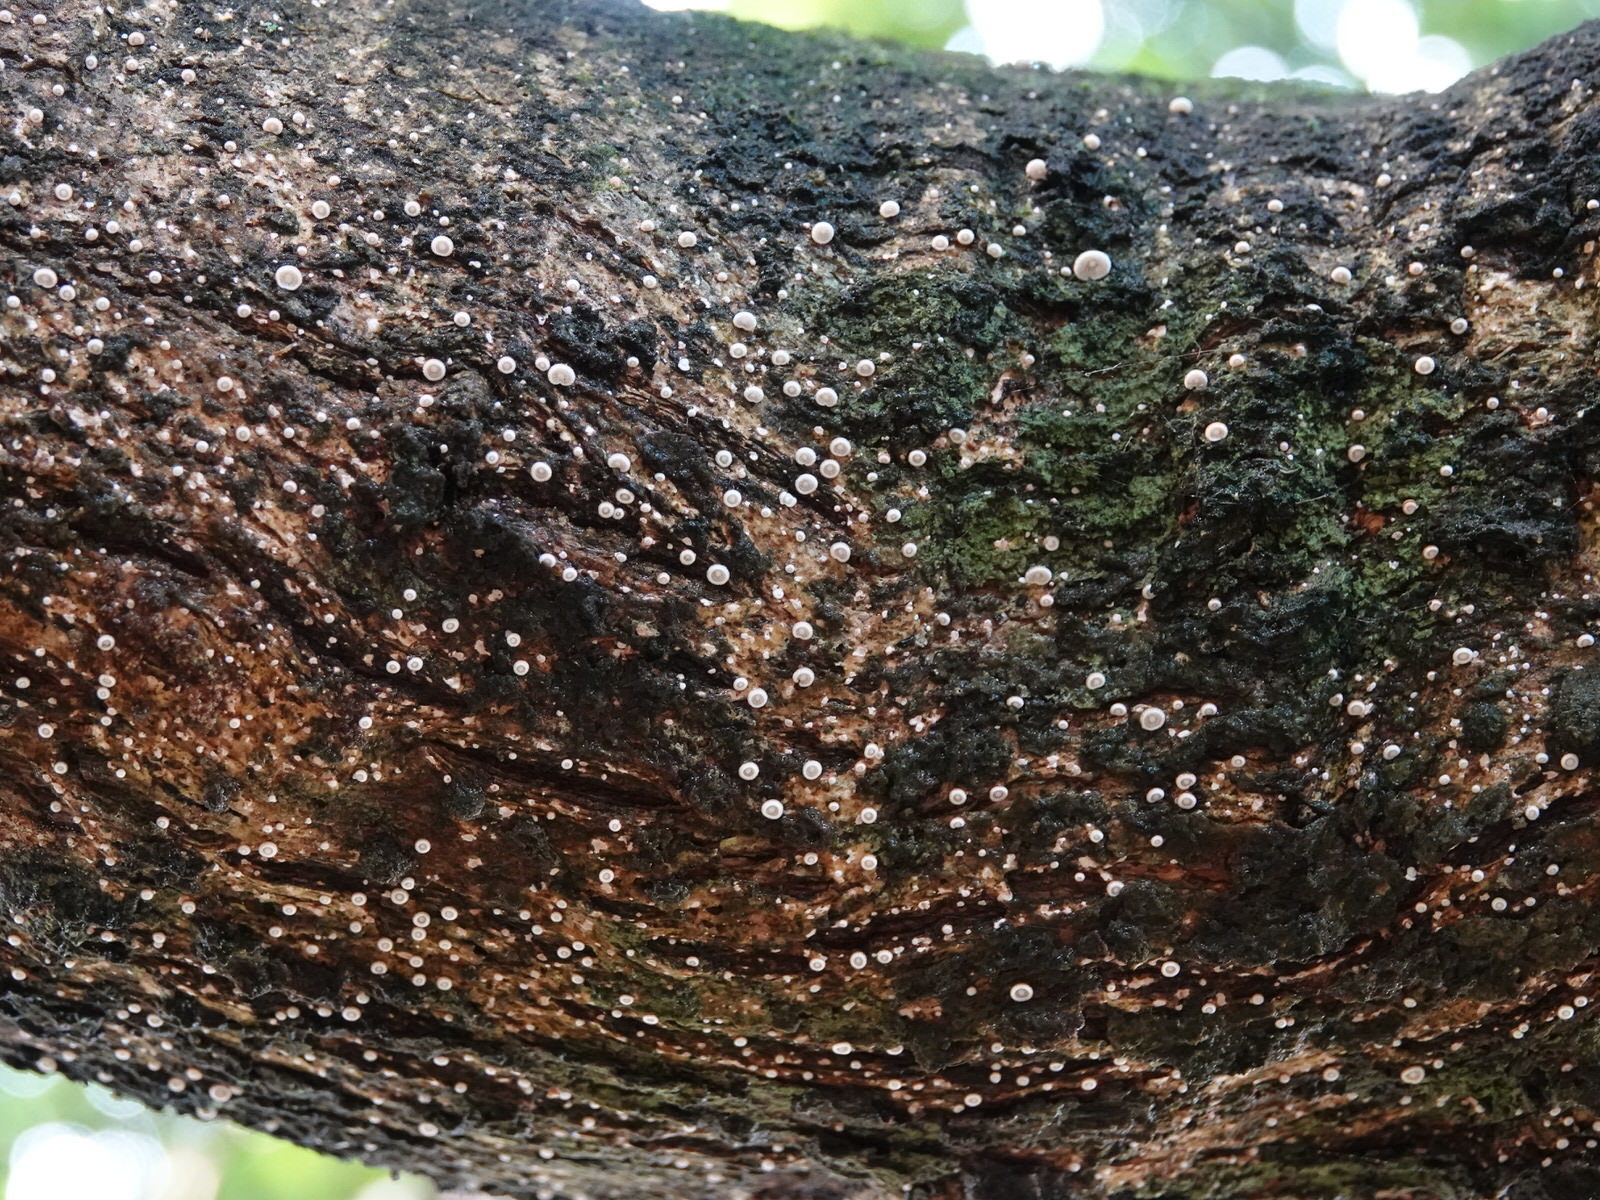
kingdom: Fungi
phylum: Basidiomycota
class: Agaricomycetes
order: Agaricales
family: Marasmiaceae
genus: Chaetocalathus
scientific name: Chaetocalathus cocciformis
